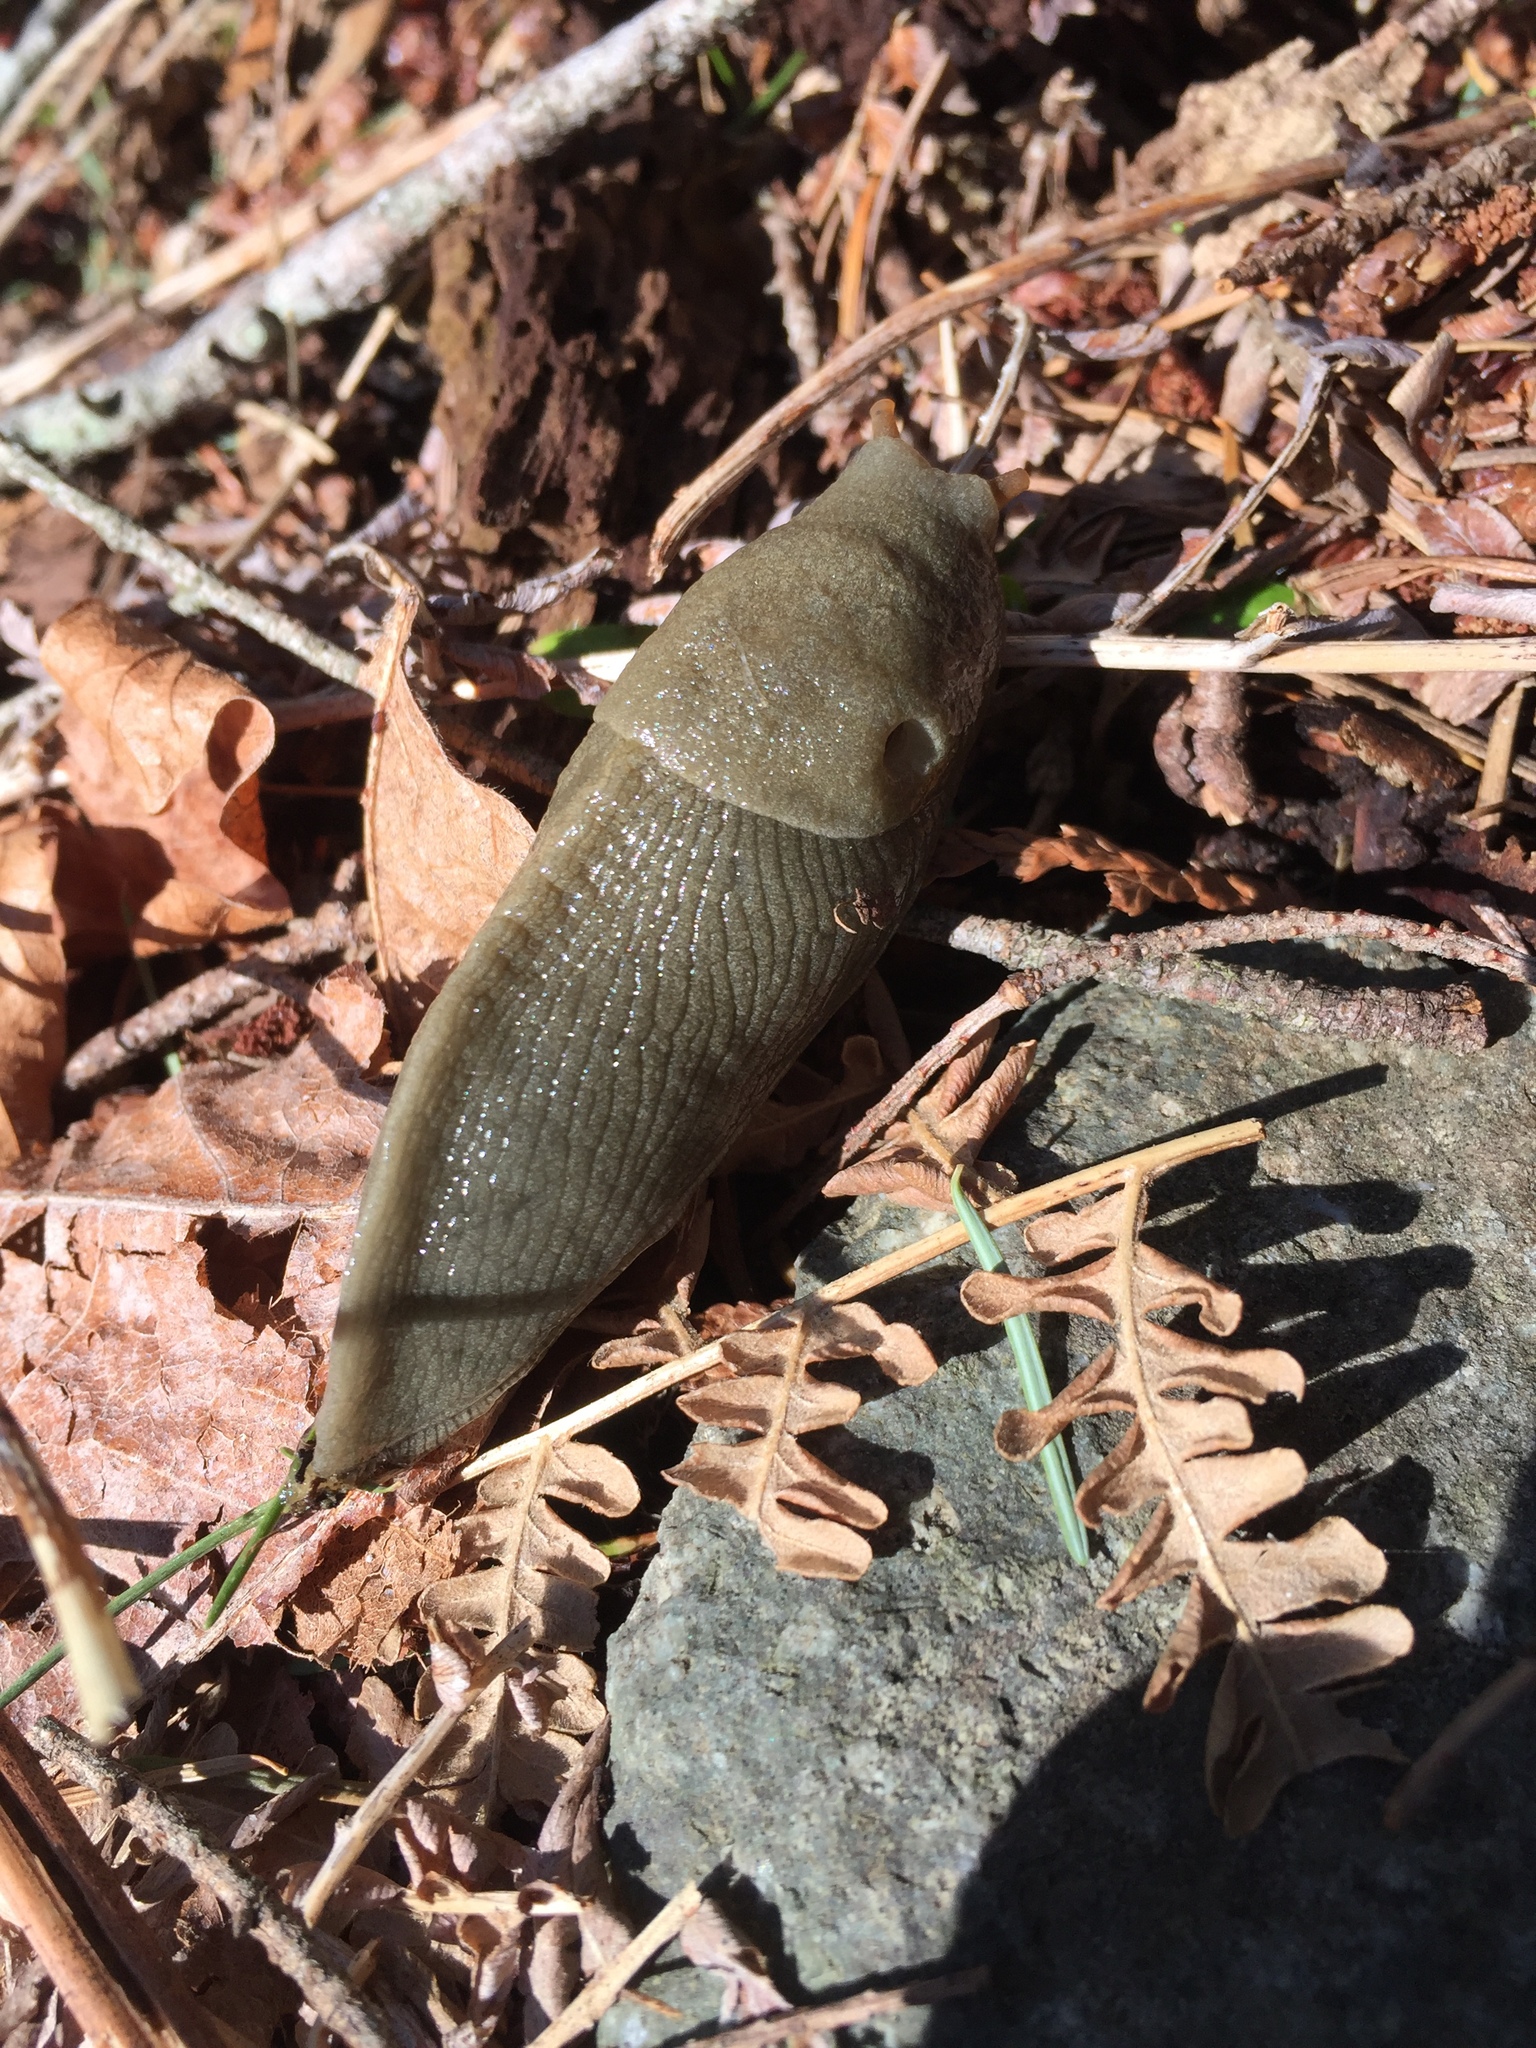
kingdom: Animalia
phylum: Mollusca
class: Gastropoda
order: Stylommatophora
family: Ariolimacidae
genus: Ariolimax
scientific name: Ariolimax columbianus
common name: Pacific banana slug
